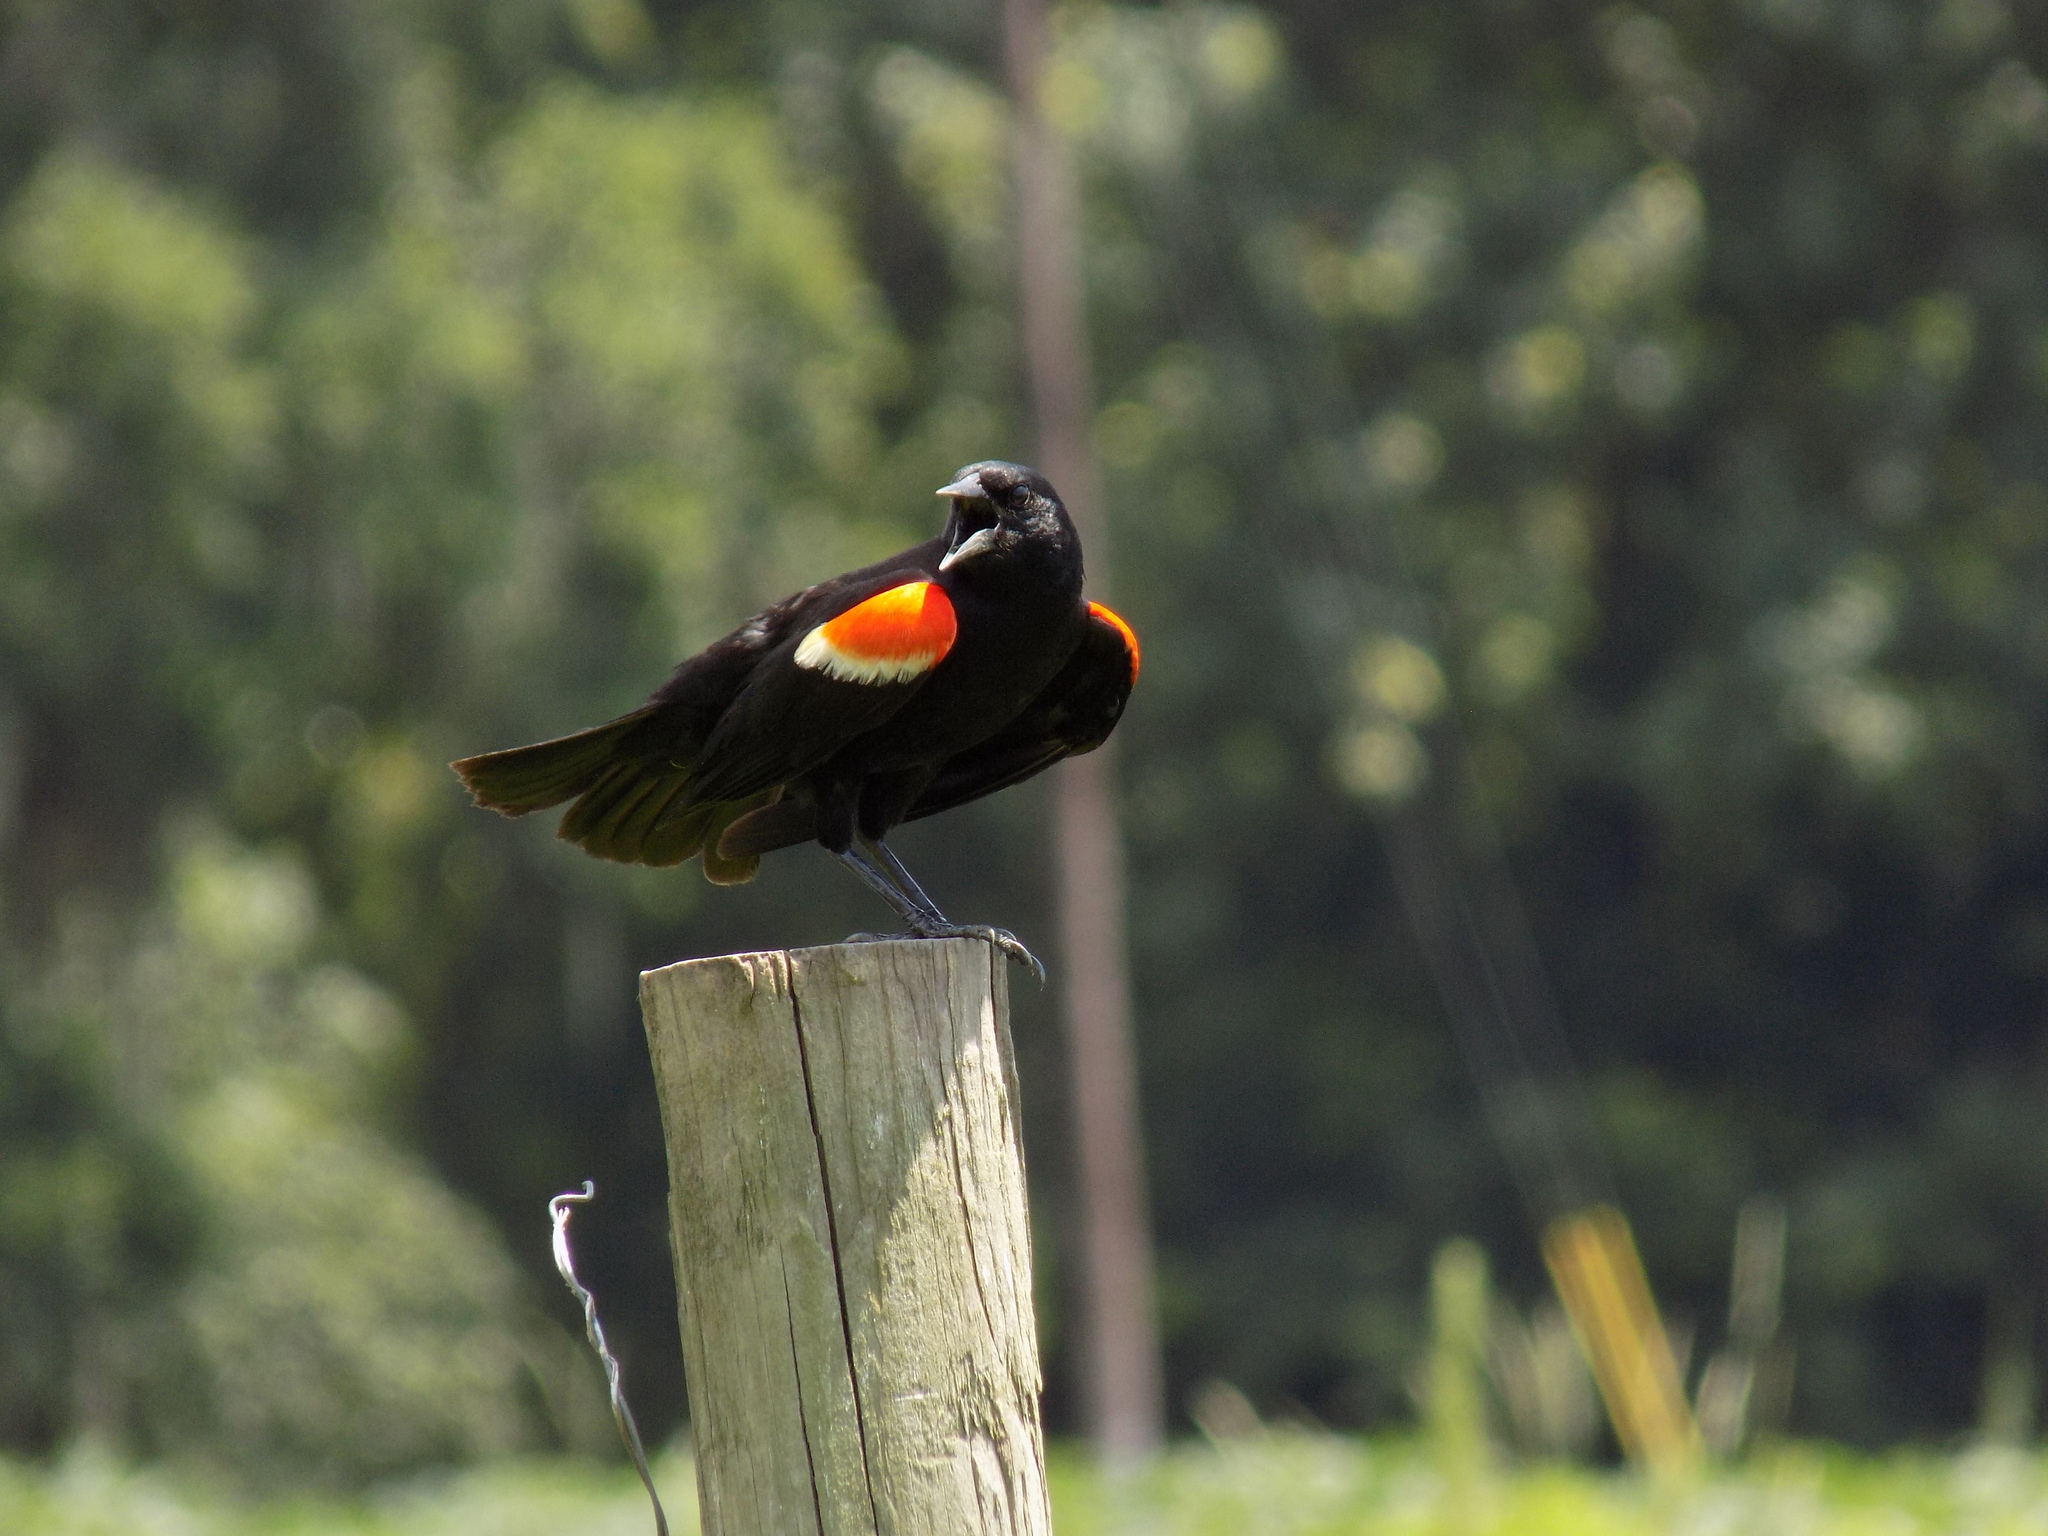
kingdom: Animalia
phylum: Chordata
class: Aves
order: Passeriformes
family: Icteridae
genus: Agelaius
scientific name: Agelaius phoeniceus
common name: Red-winged blackbird
